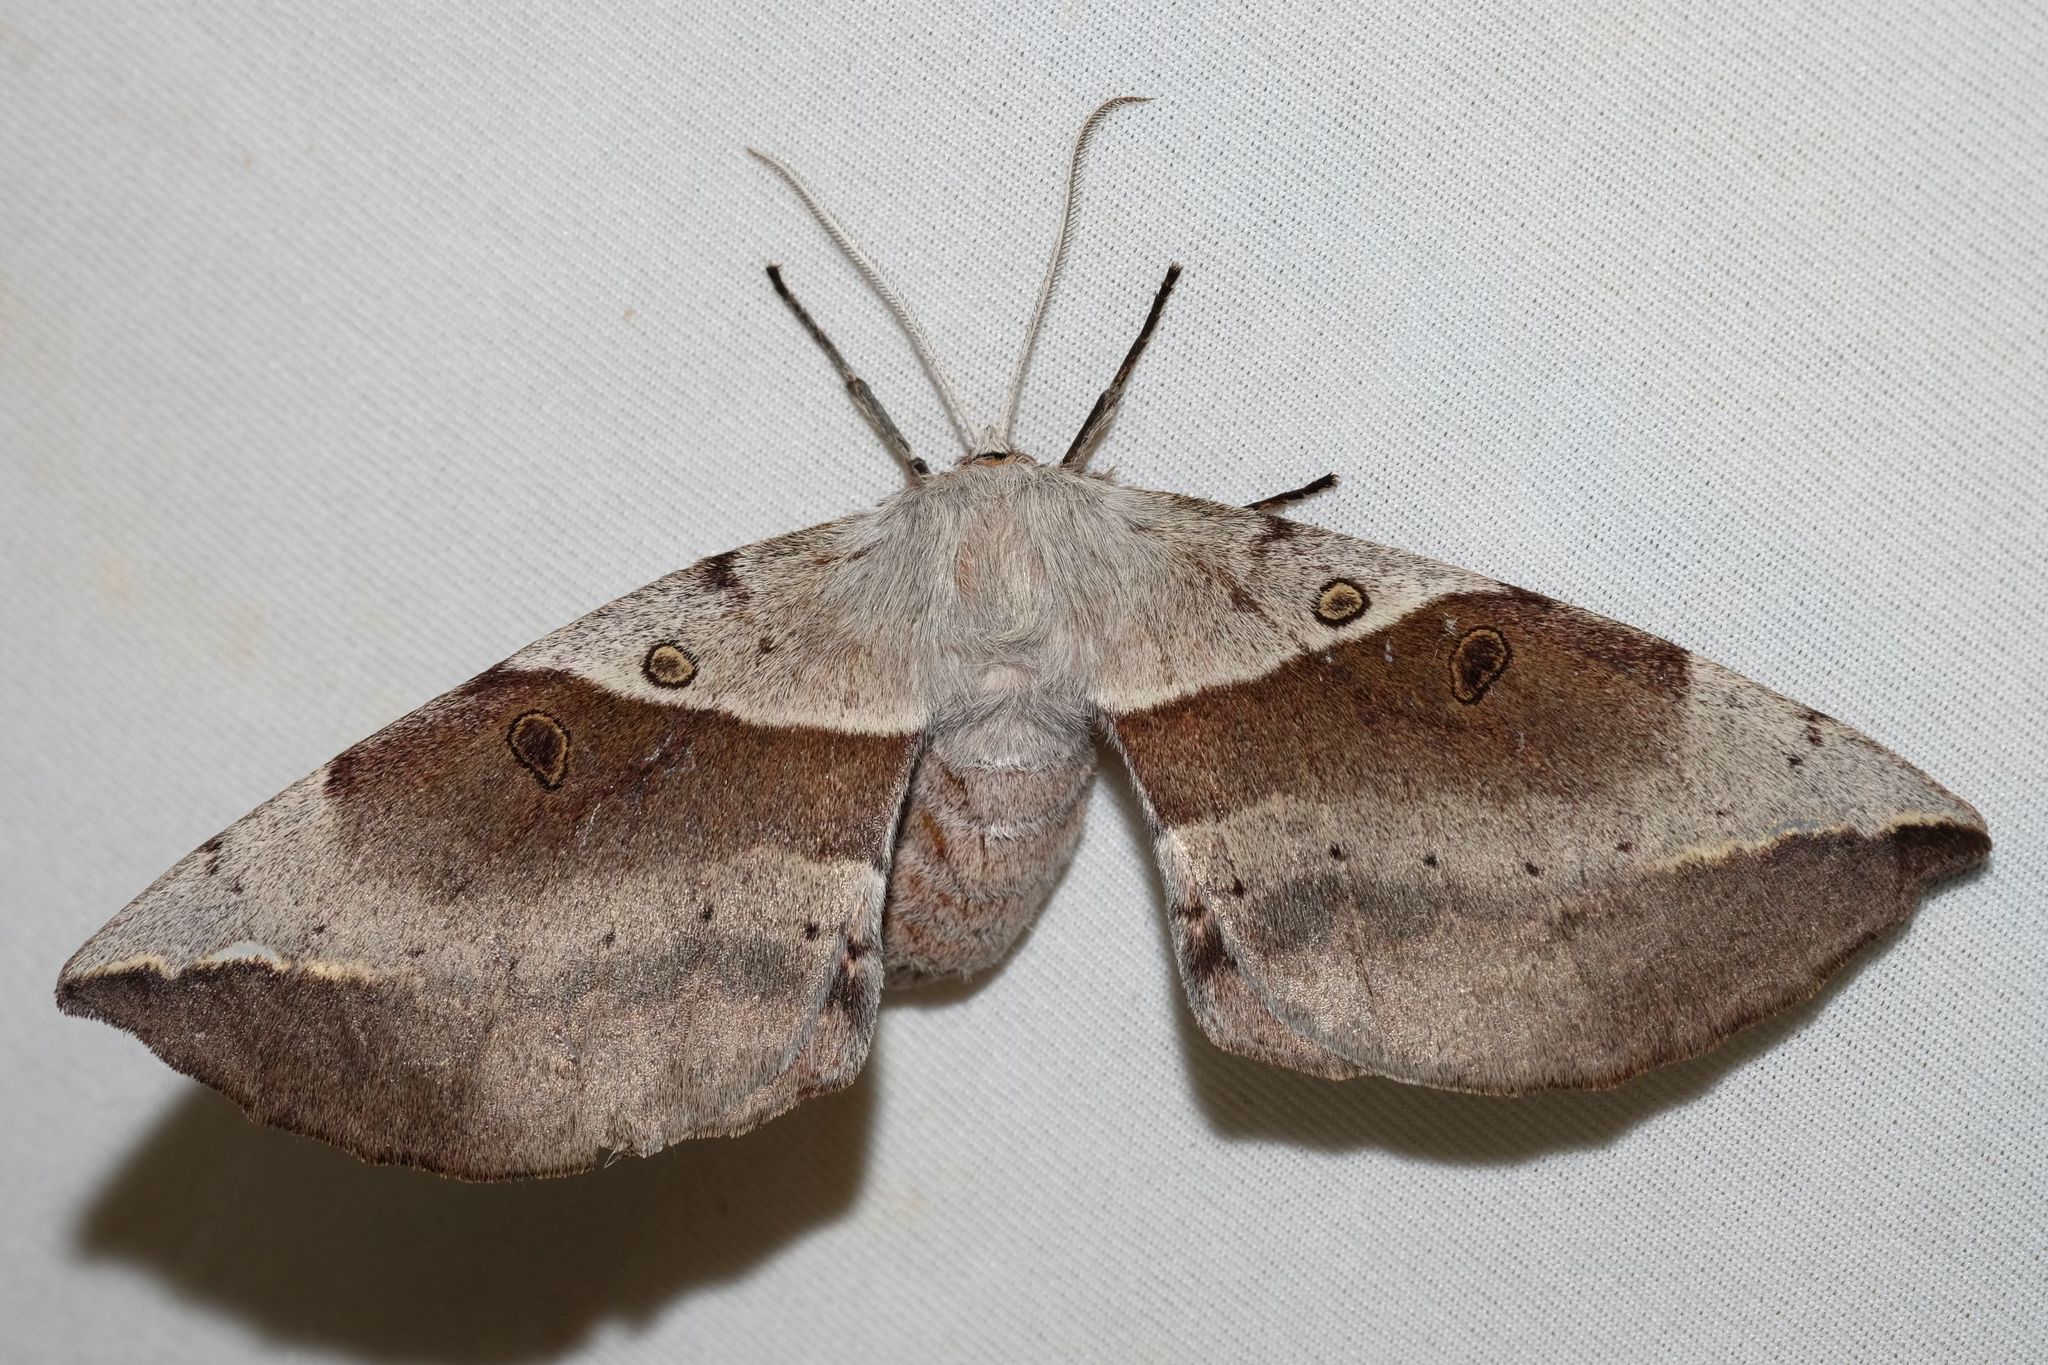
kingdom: Animalia
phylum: Arthropoda
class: Insecta
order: Lepidoptera
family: Anthelidae
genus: Chelepteryx
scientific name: Chelepteryx chalepteryx
